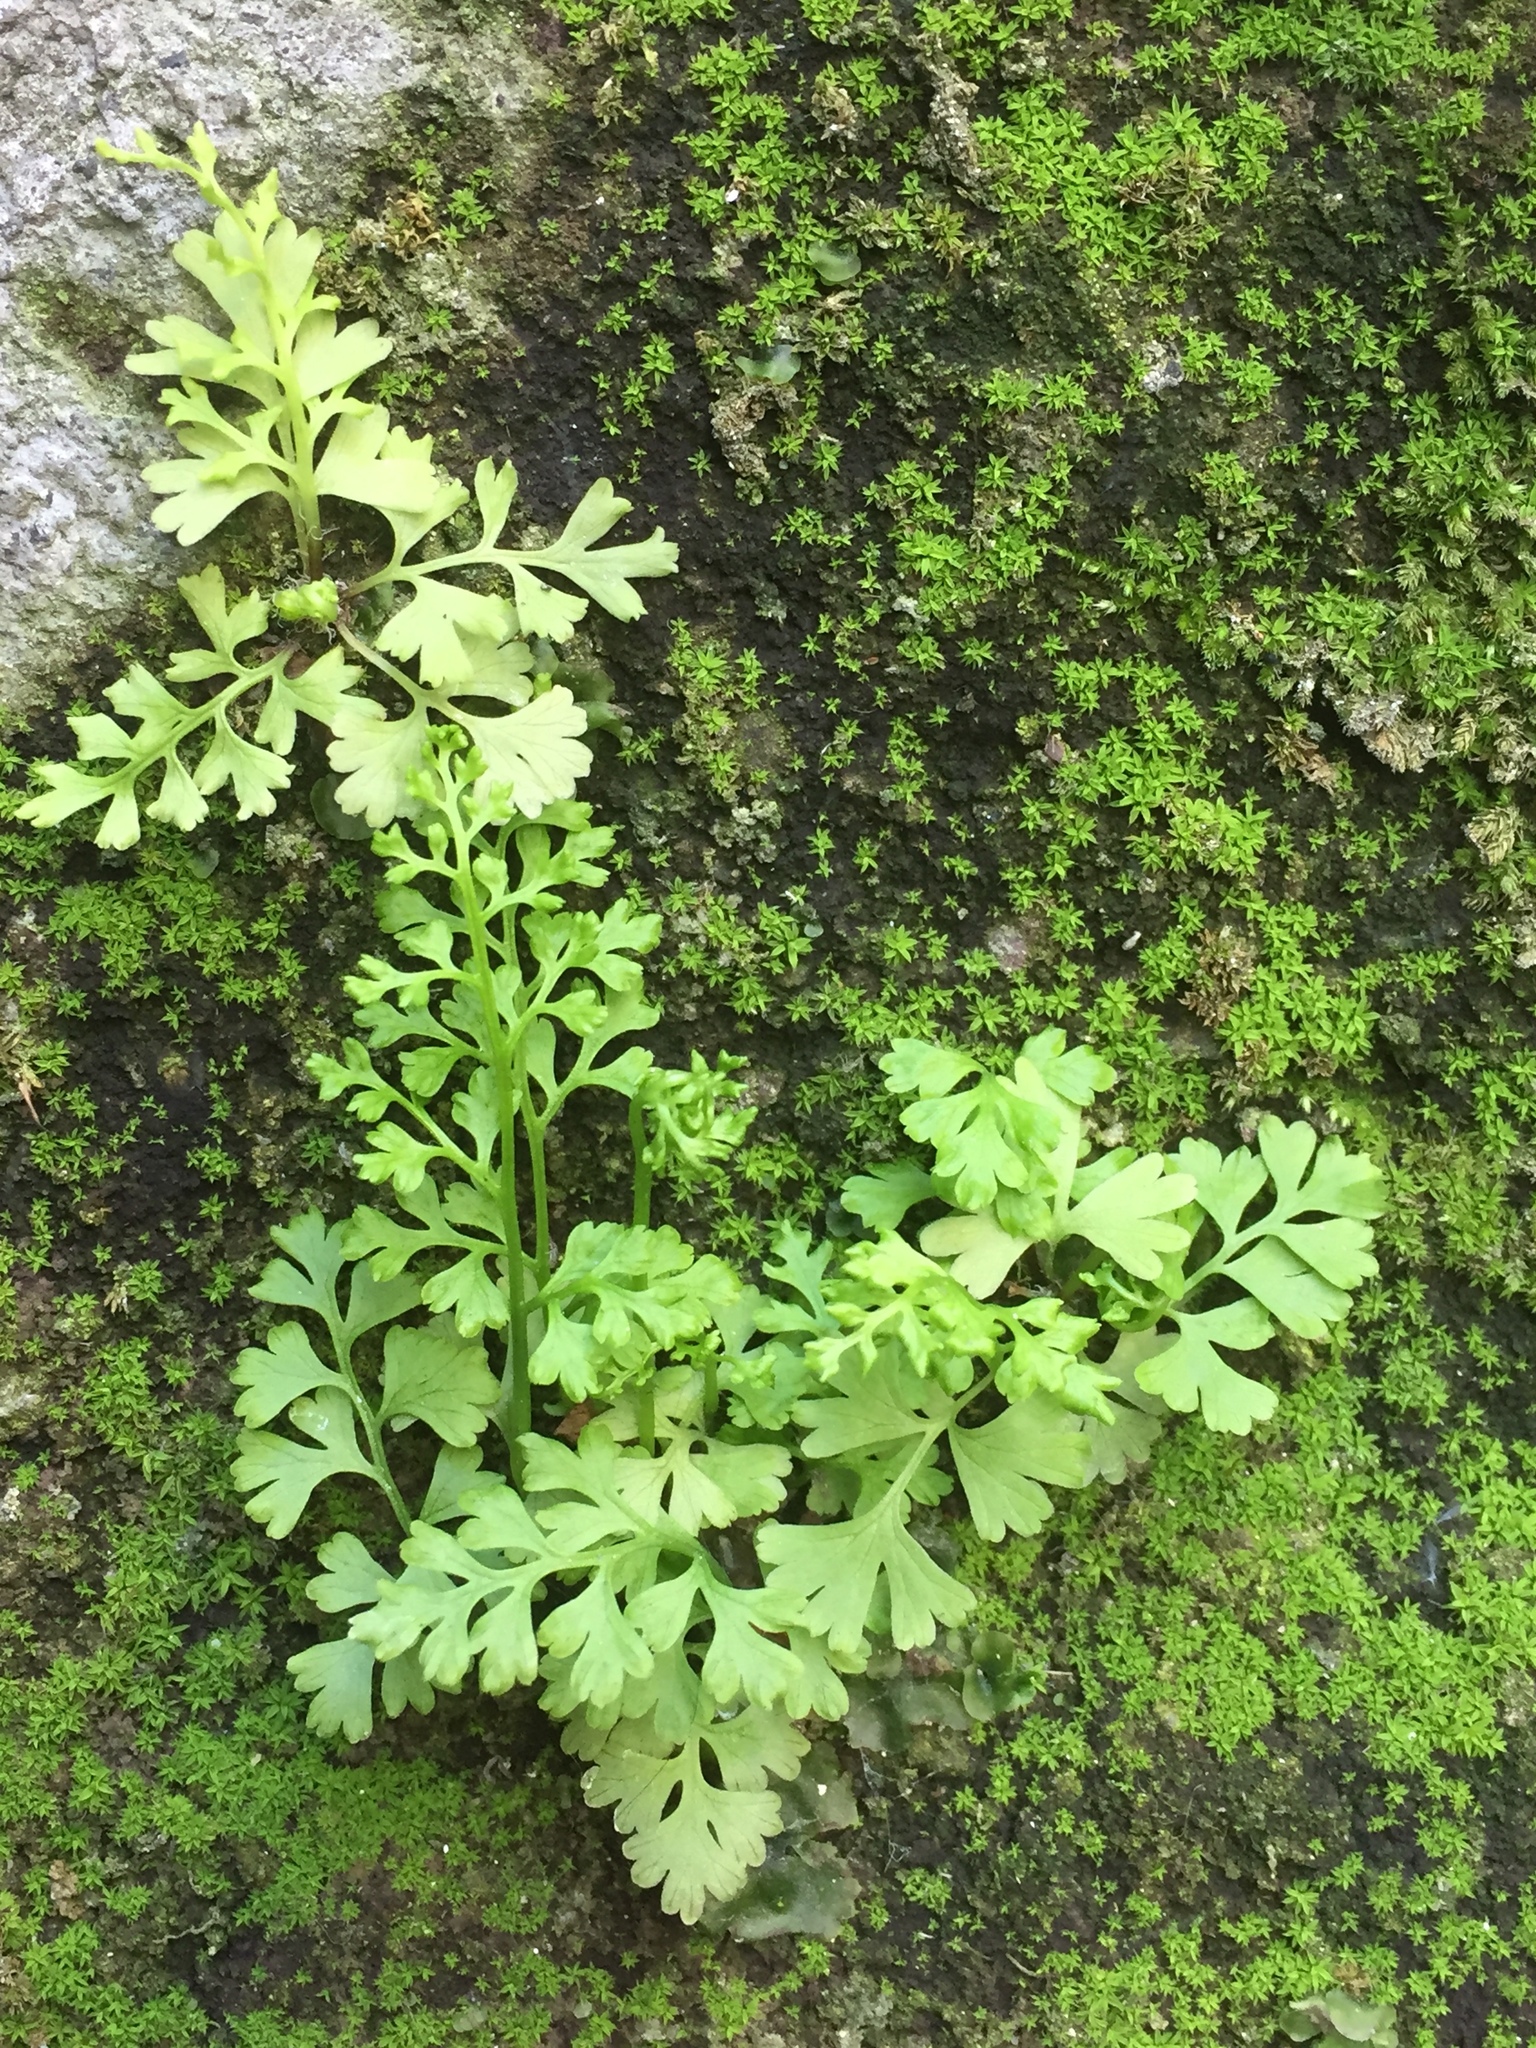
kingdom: Plantae
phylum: Tracheophyta
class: Polypodiopsida
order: Polypodiales
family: Pteridaceae
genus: Anogramma
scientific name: Anogramma leptophylla
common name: Jersey fern
